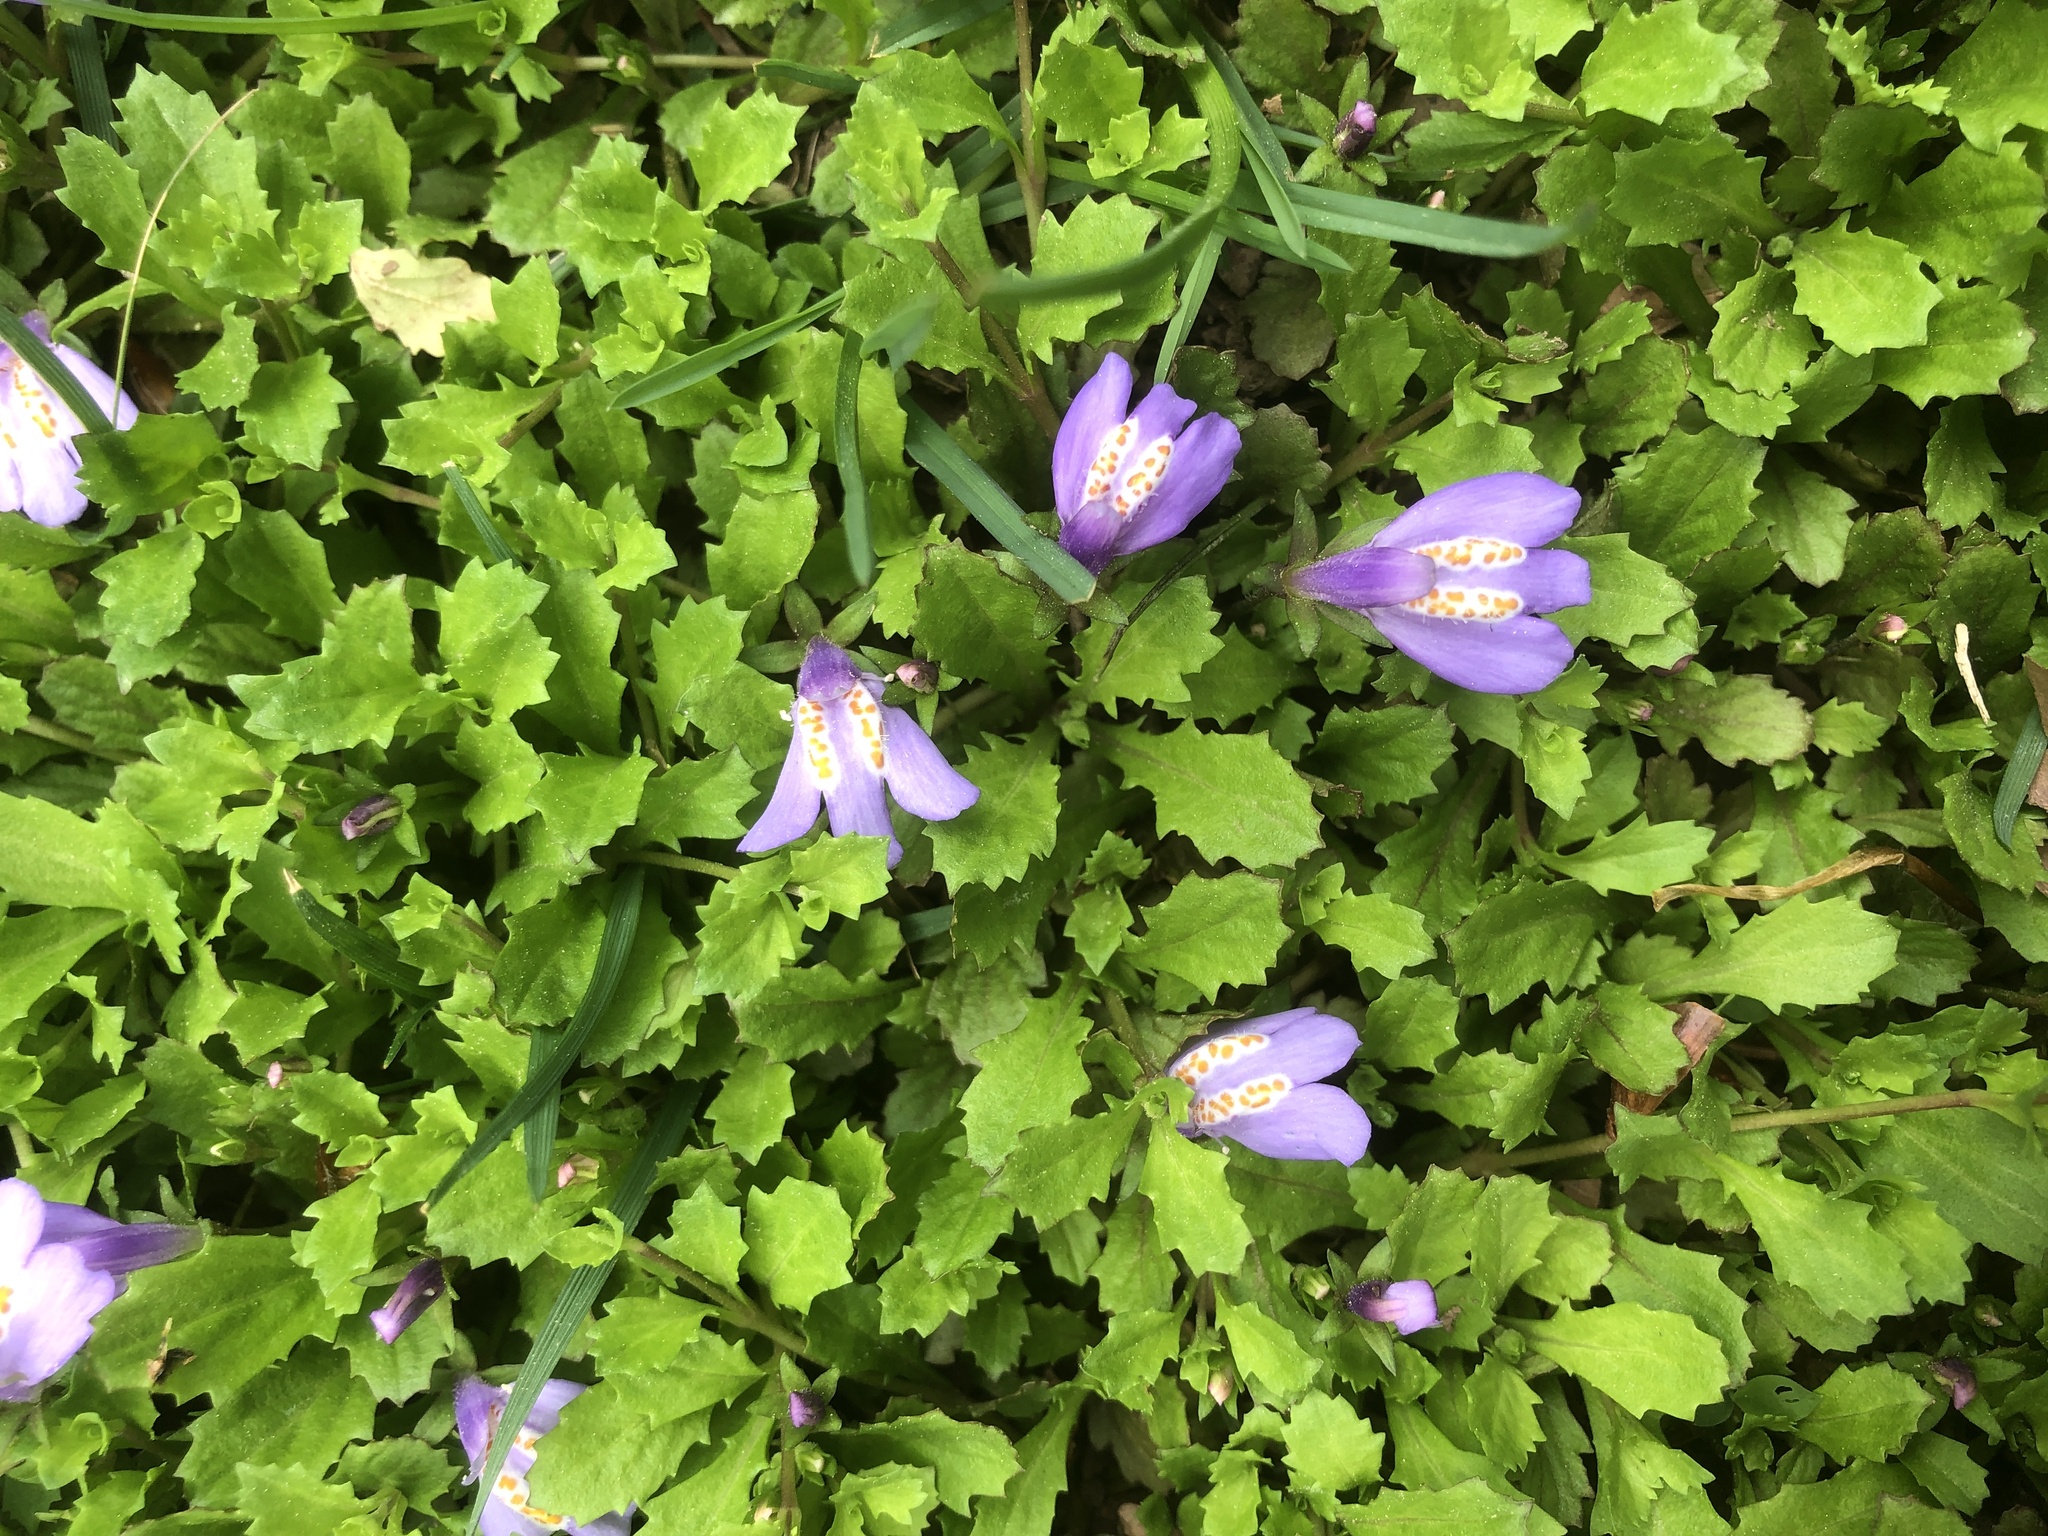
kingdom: Plantae
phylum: Tracheophyta
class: Magnoliopsida
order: Lamiales
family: Mazaceae
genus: Mazus
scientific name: Mazus miquelii
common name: Miquel's mazus
